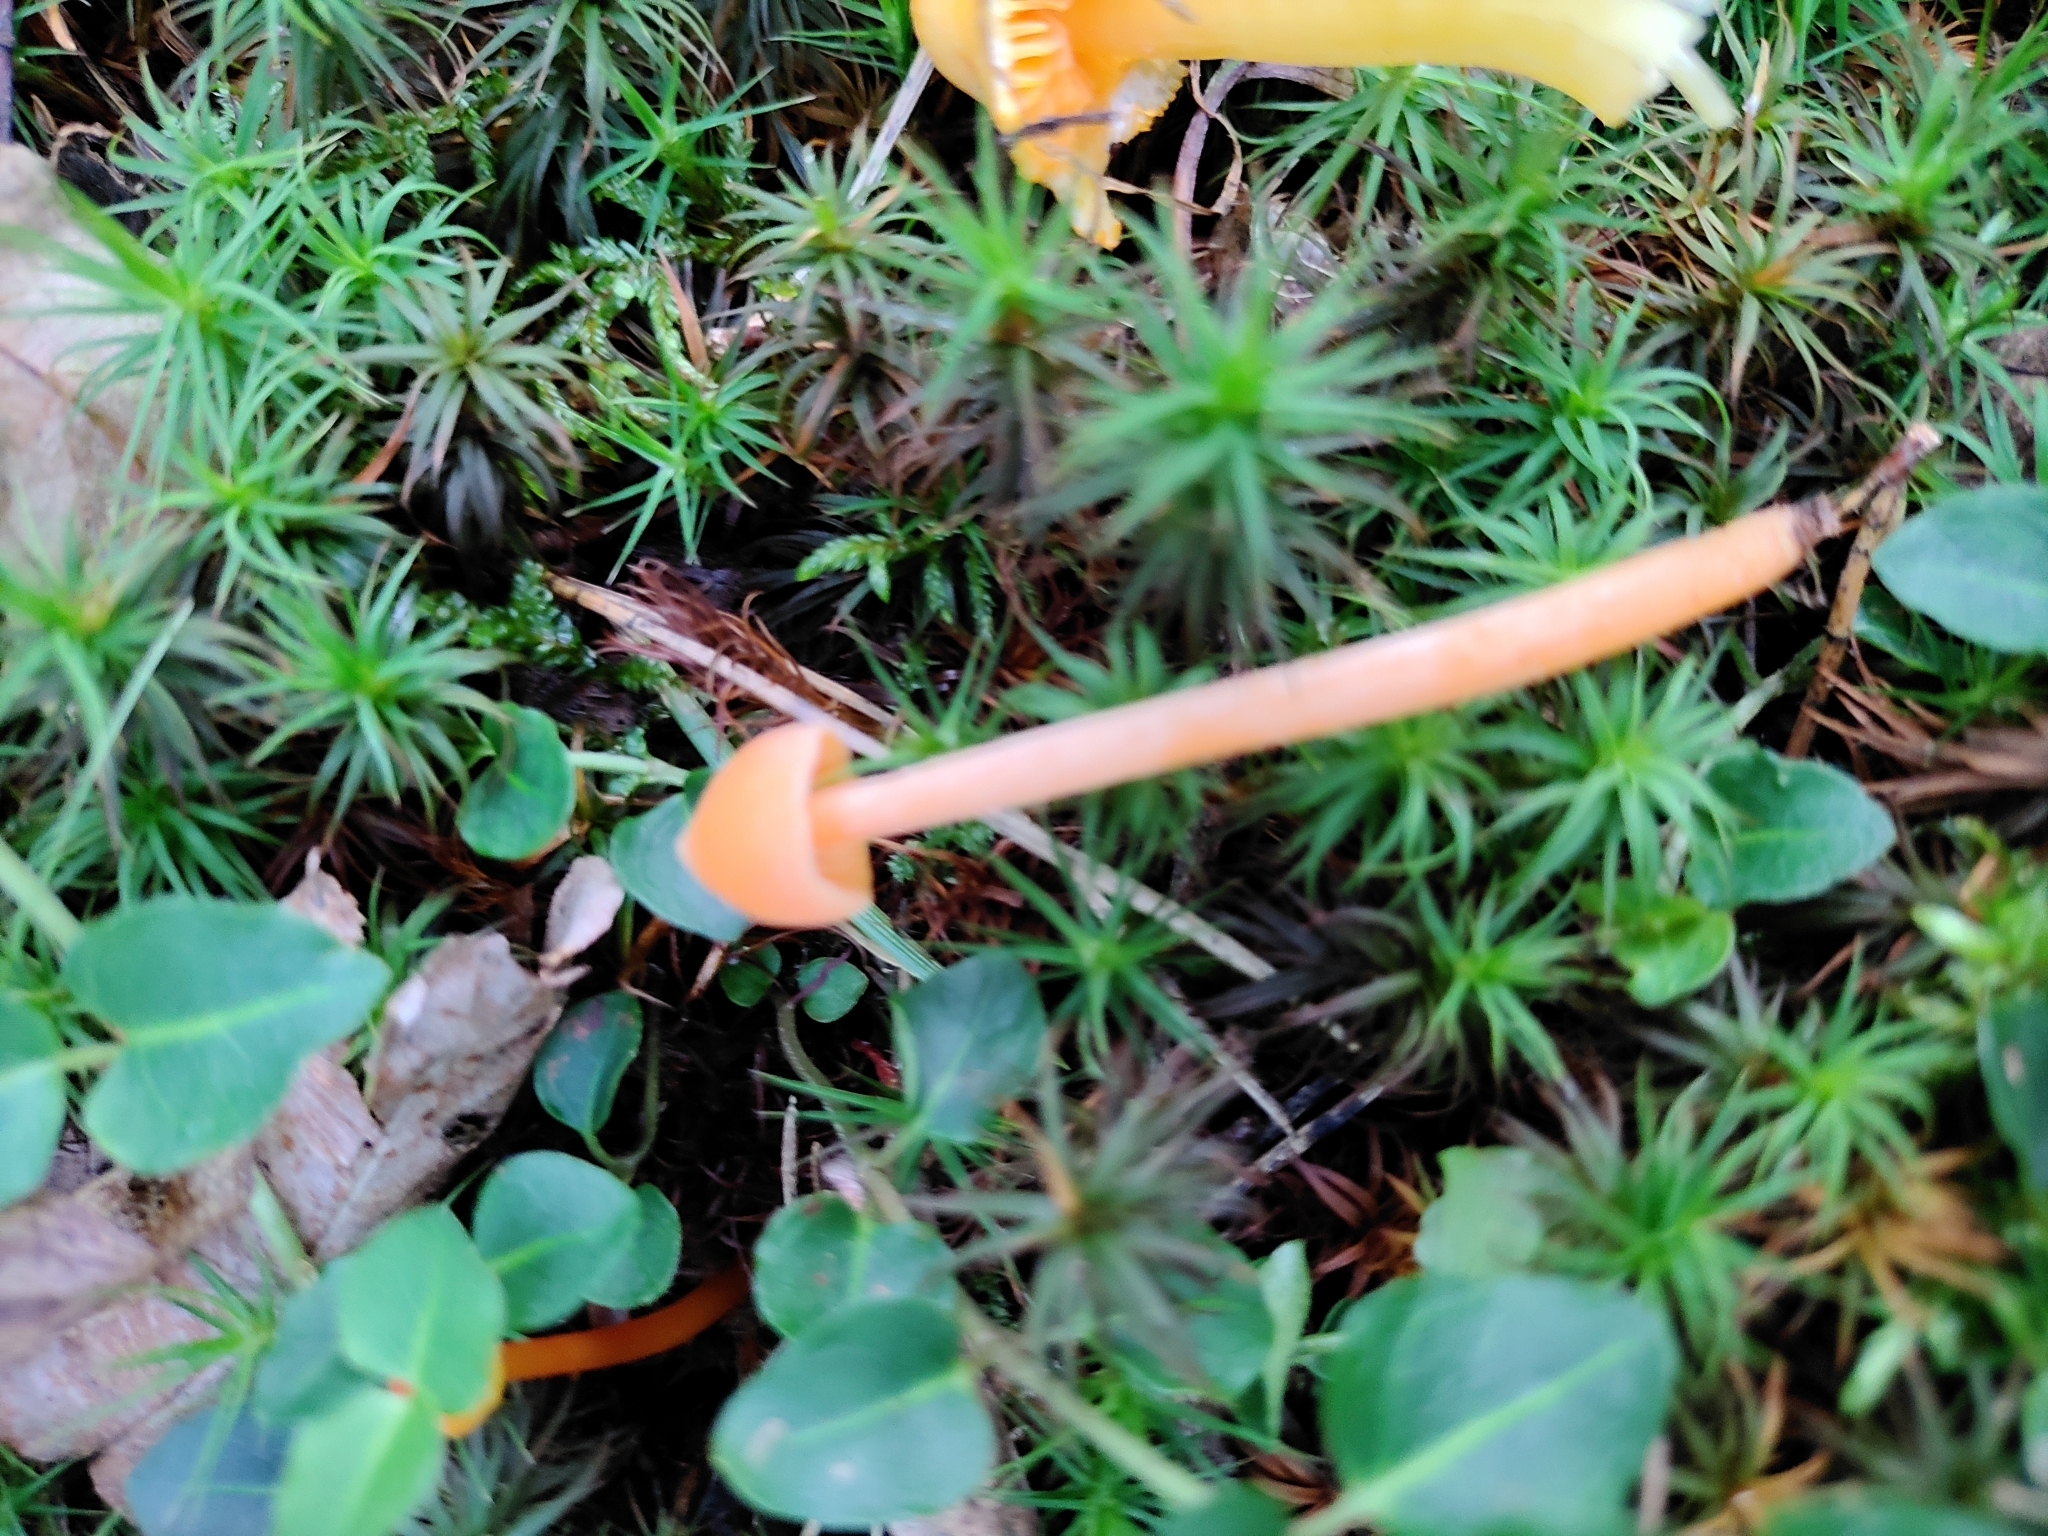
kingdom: Fungi
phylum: Basidiomycota
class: Agaricomycetes
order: Agaricales
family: Entolomataceae
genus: Entoloma
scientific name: Entoloma quadratum
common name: Salmon pinkgill
